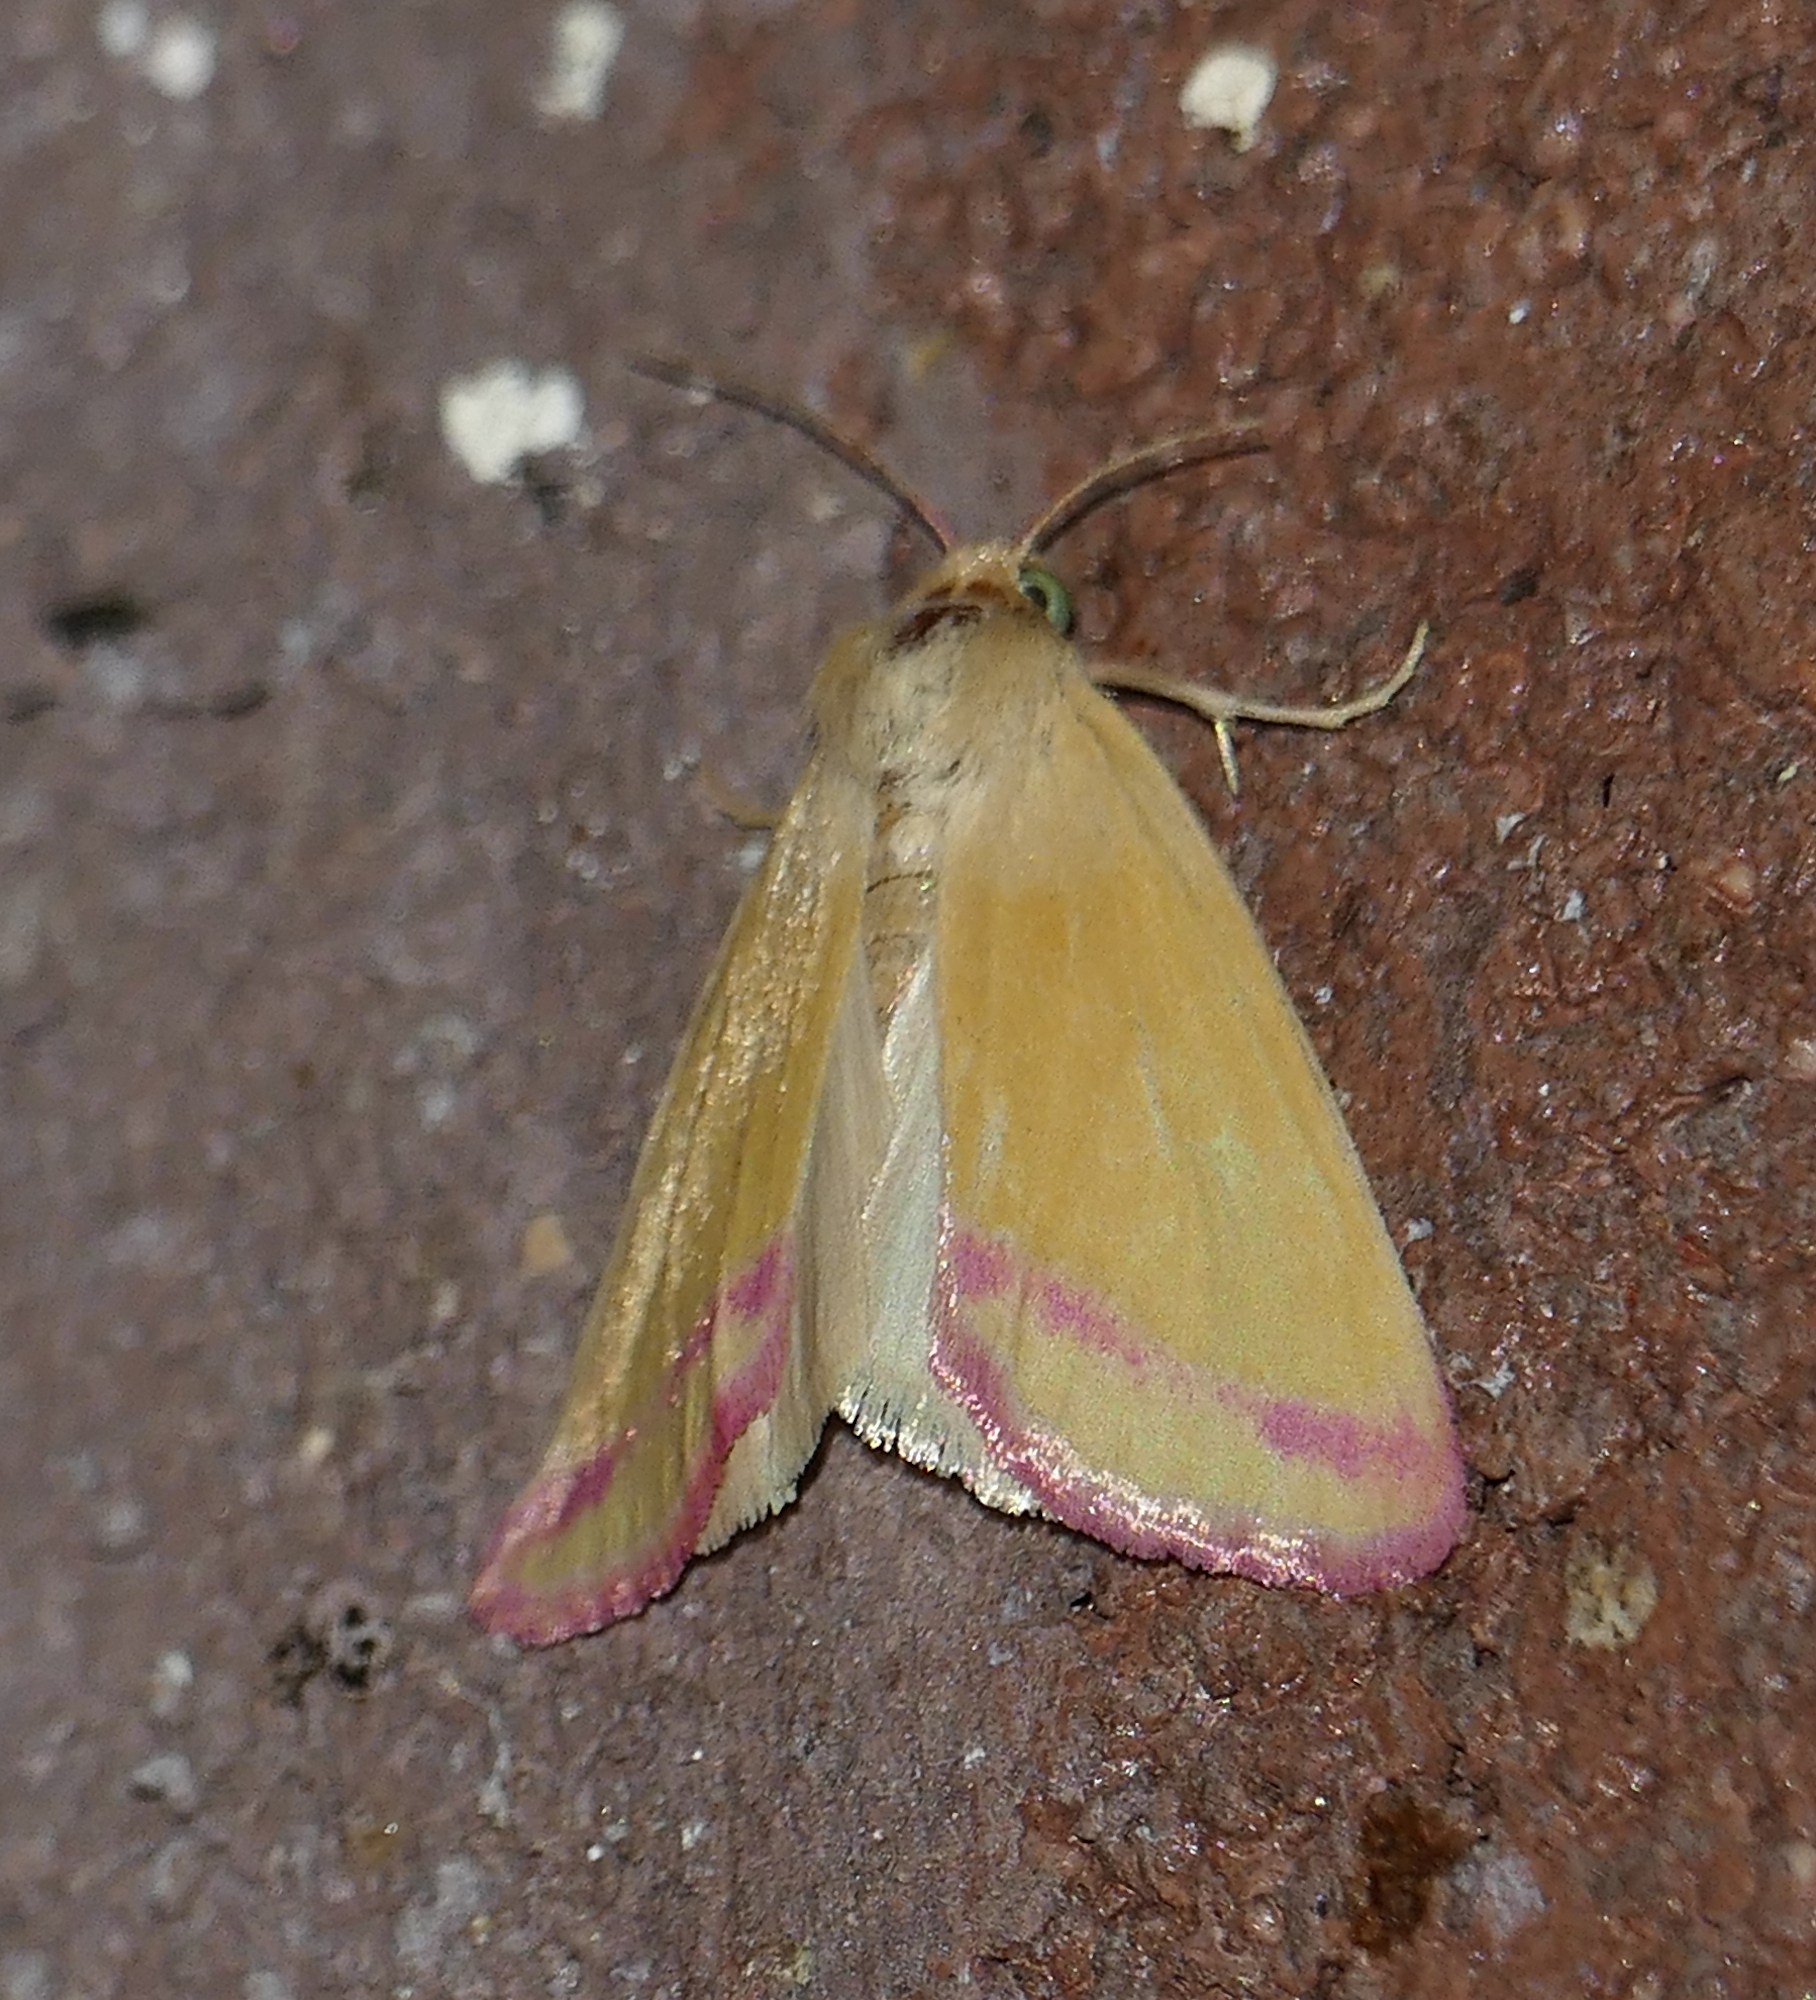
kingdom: Animalia
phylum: Arthropoda
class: Insecta
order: Lepidoptera
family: Noctuidae
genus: Heliocheilus
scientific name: Heliocheilus toralis
